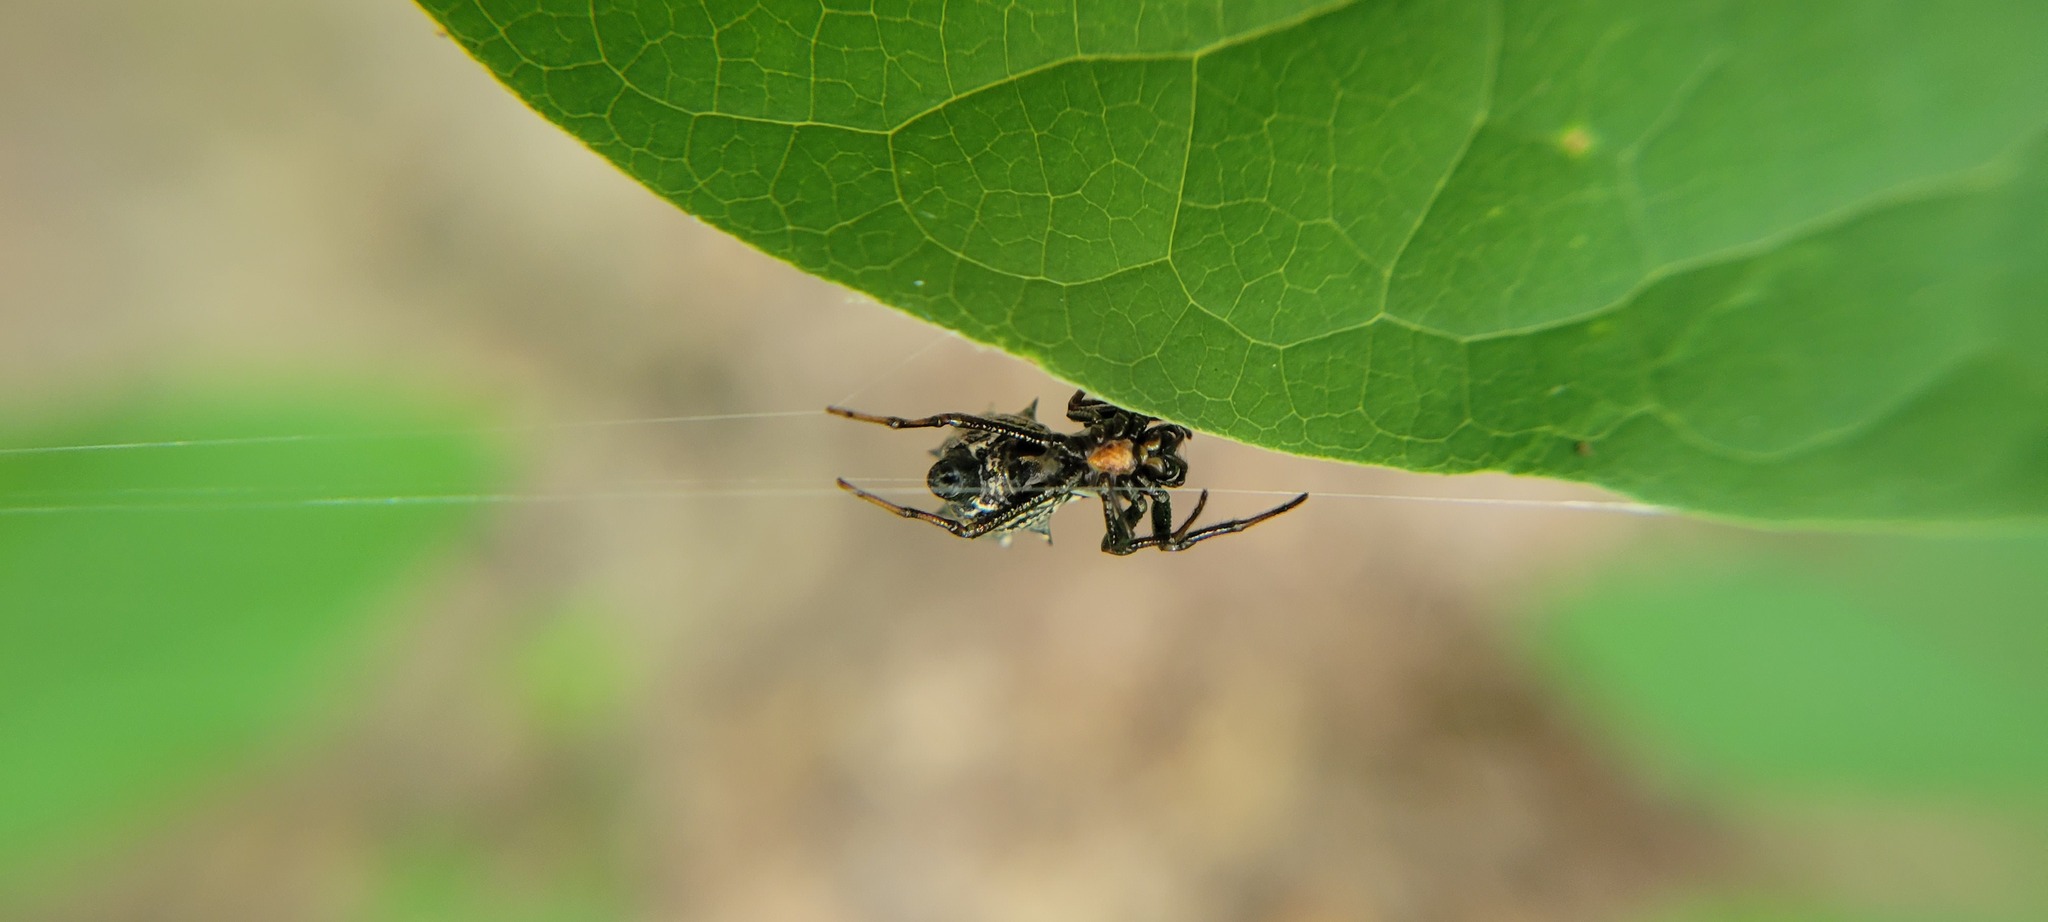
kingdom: Animalia
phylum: Arthropoda
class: Arachnida
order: Araneae
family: Araneidae
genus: Micrathena
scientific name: Micrathena gracilis
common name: Orb weavers
